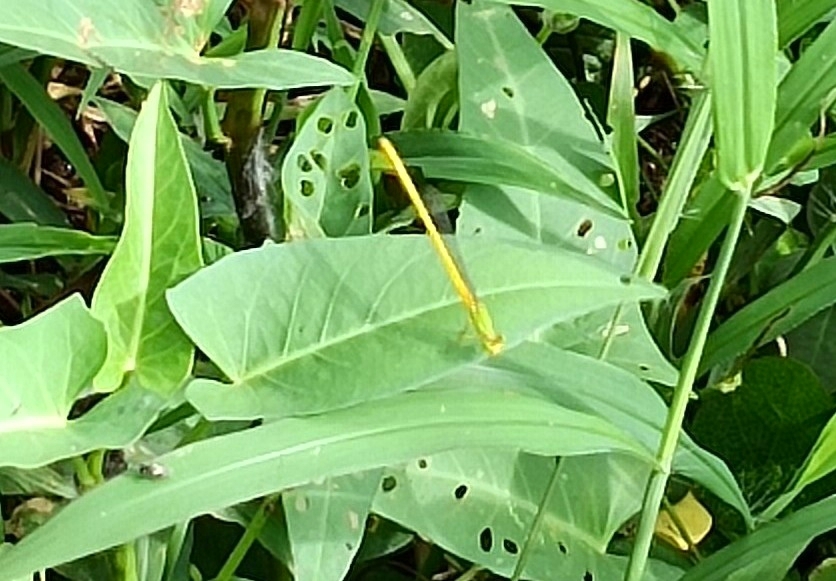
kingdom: Animalia
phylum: Arthropoda
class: Insecta
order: Odonata
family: Coenagrionidae
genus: Ceriagrion
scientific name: Ceriagrion coromandelianum
